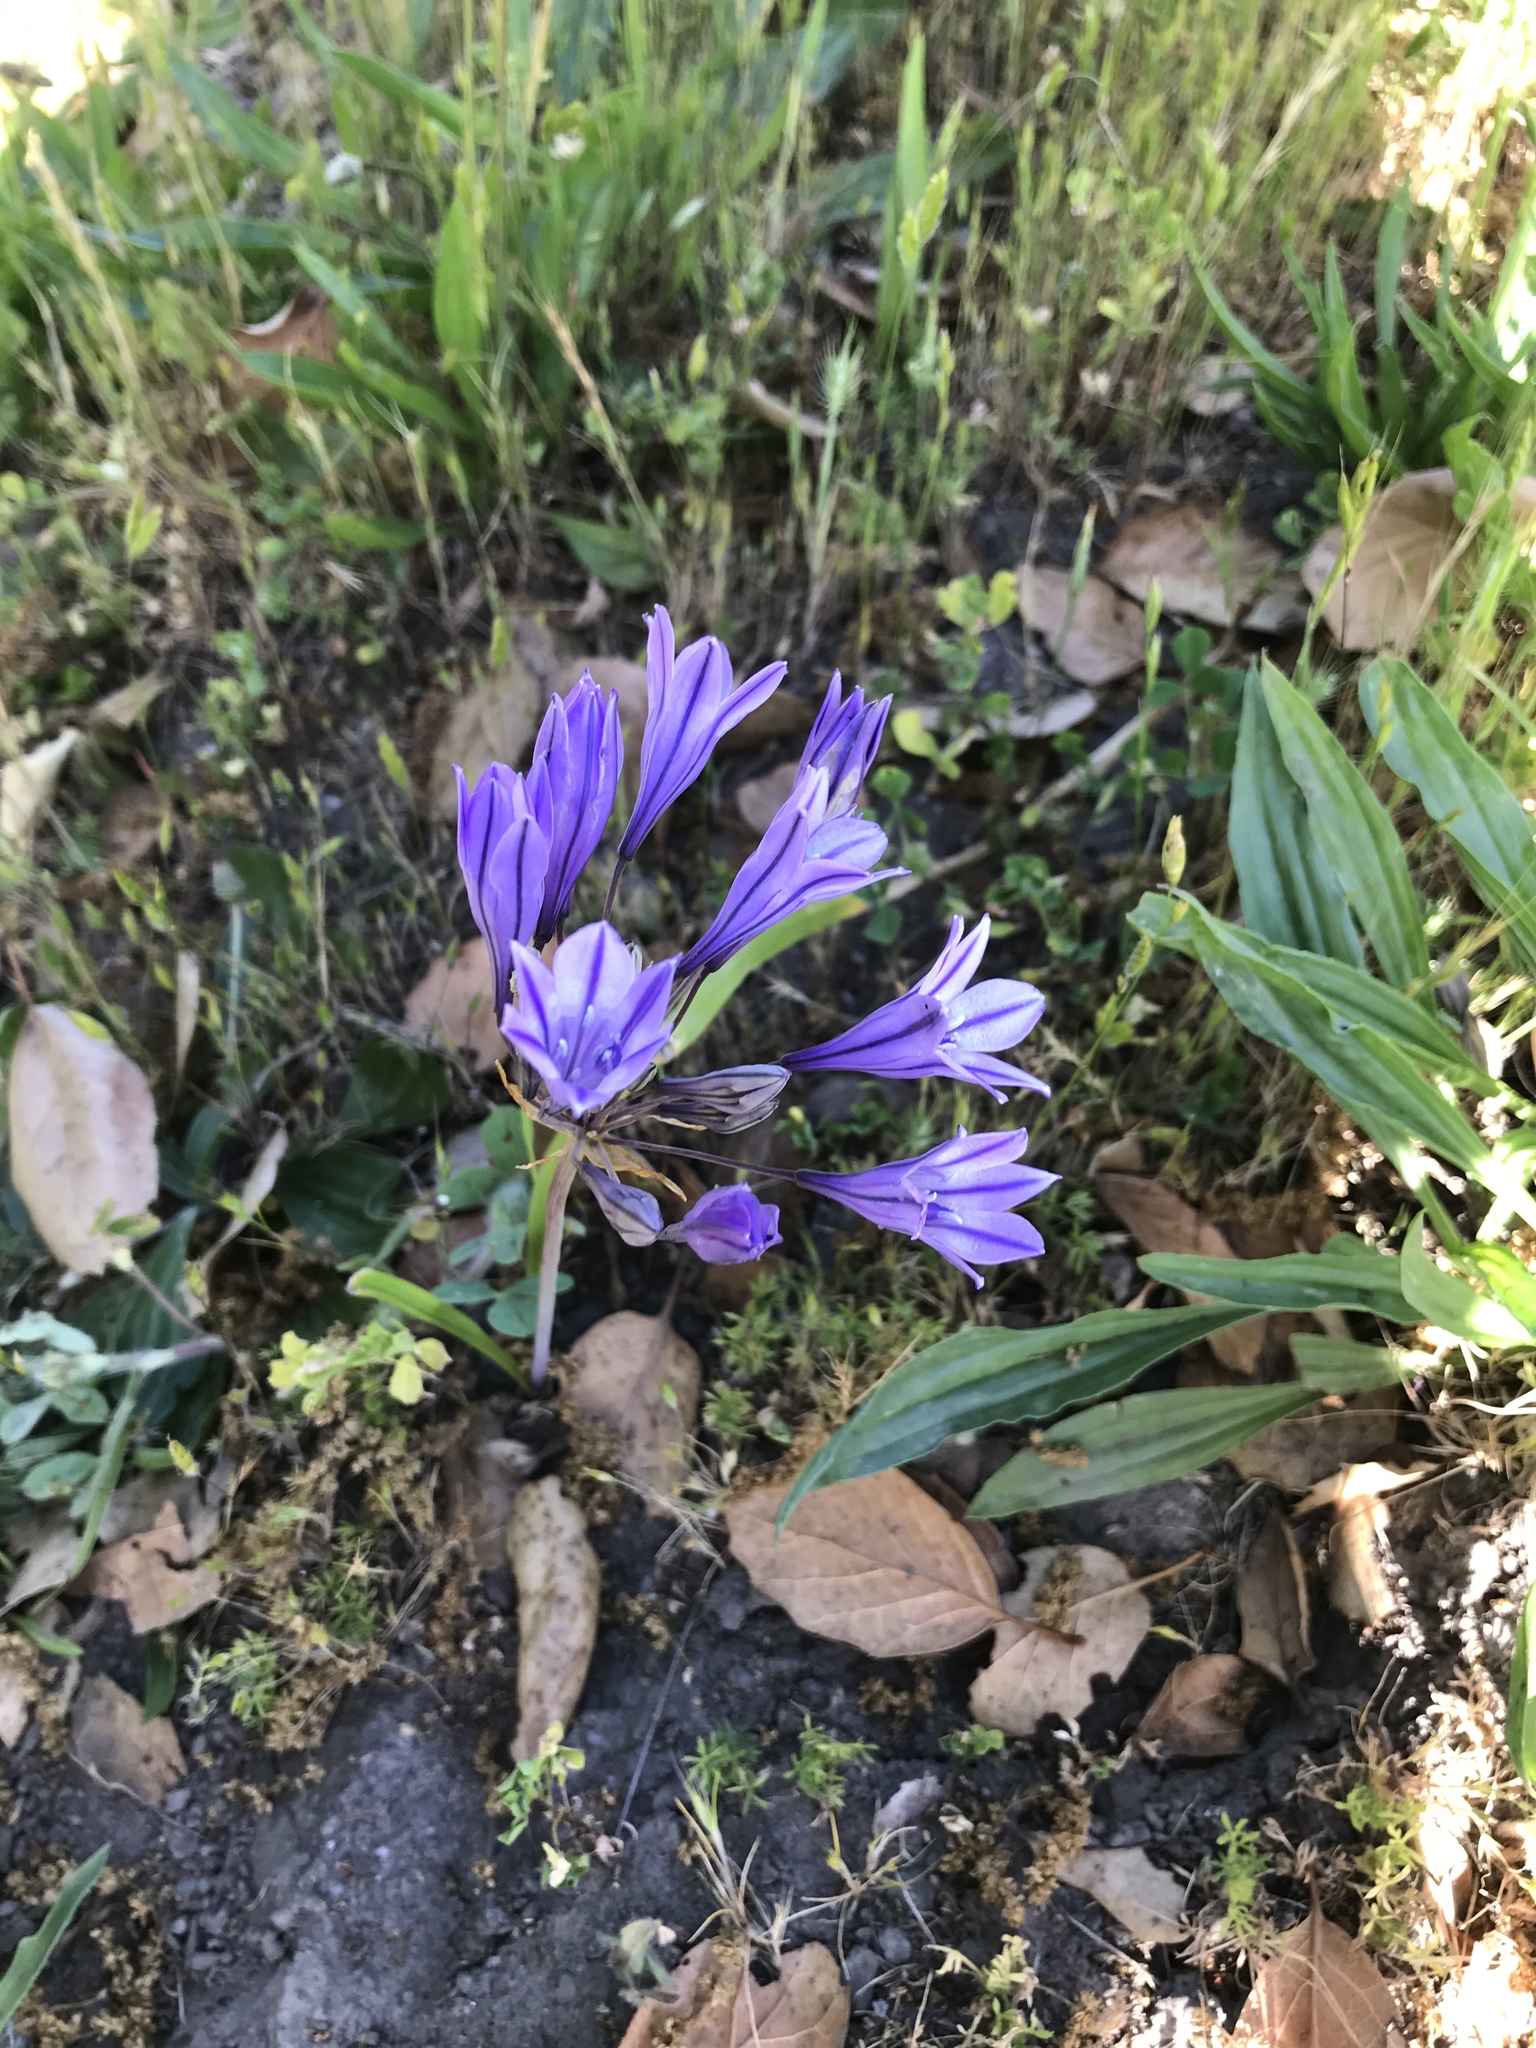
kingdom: Plantae
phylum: Tracheophyta
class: Liliopsida
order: Asparagales
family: Asparagaceae
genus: Triteleia
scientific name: Triteleia laxa
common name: Triplet-lily
